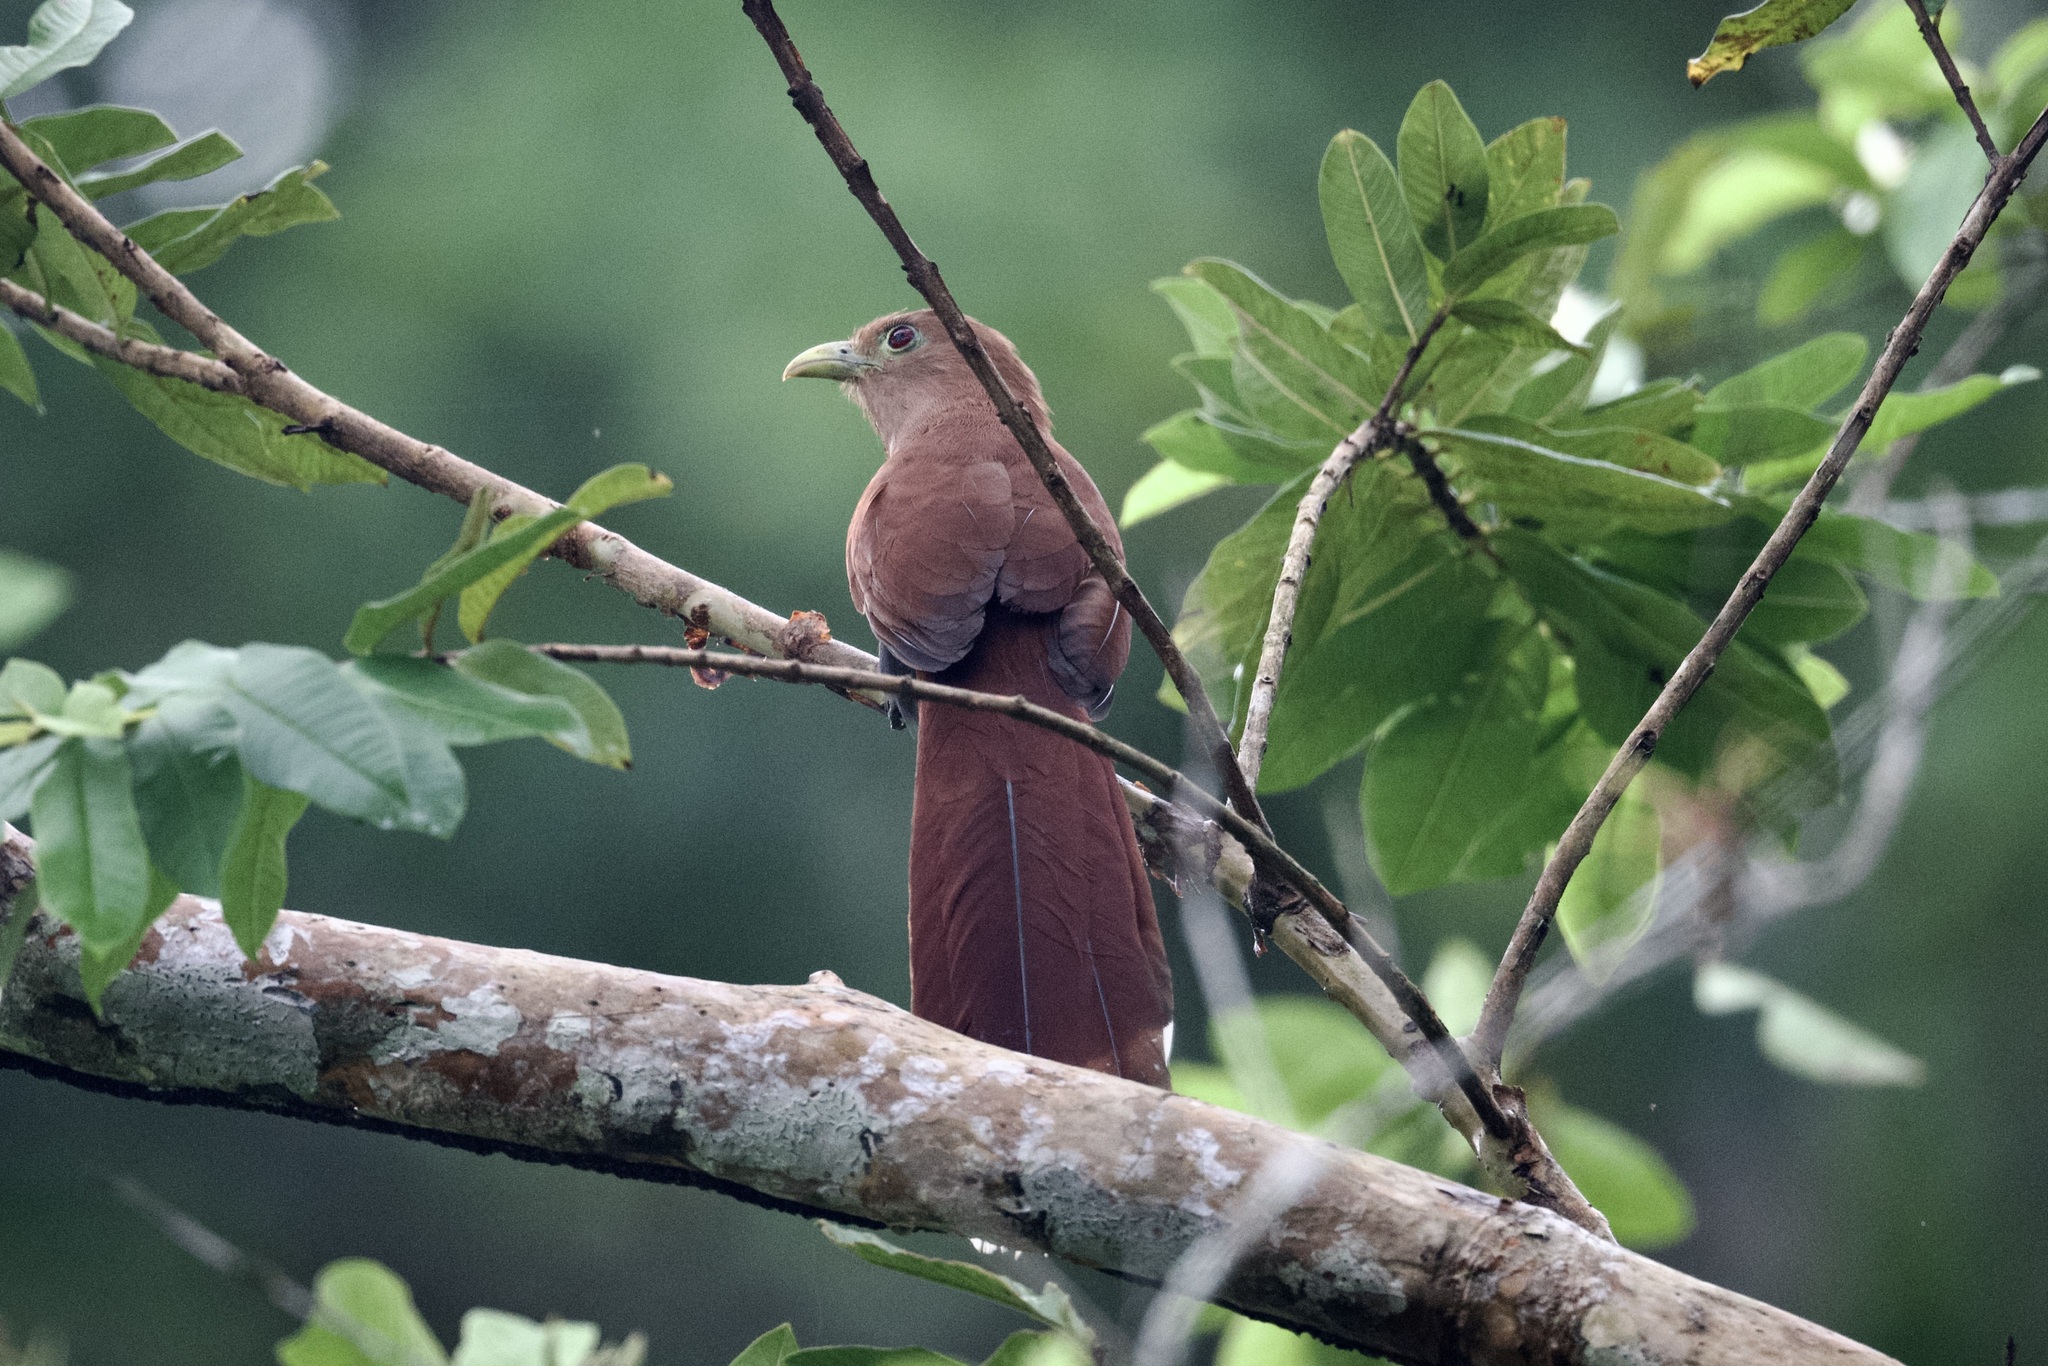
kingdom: Animalia
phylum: Chordata
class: Aves
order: Cuculiformes
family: Cuculidae
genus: Piaya
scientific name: Piaya cayana
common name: Squirrel cuckoo
